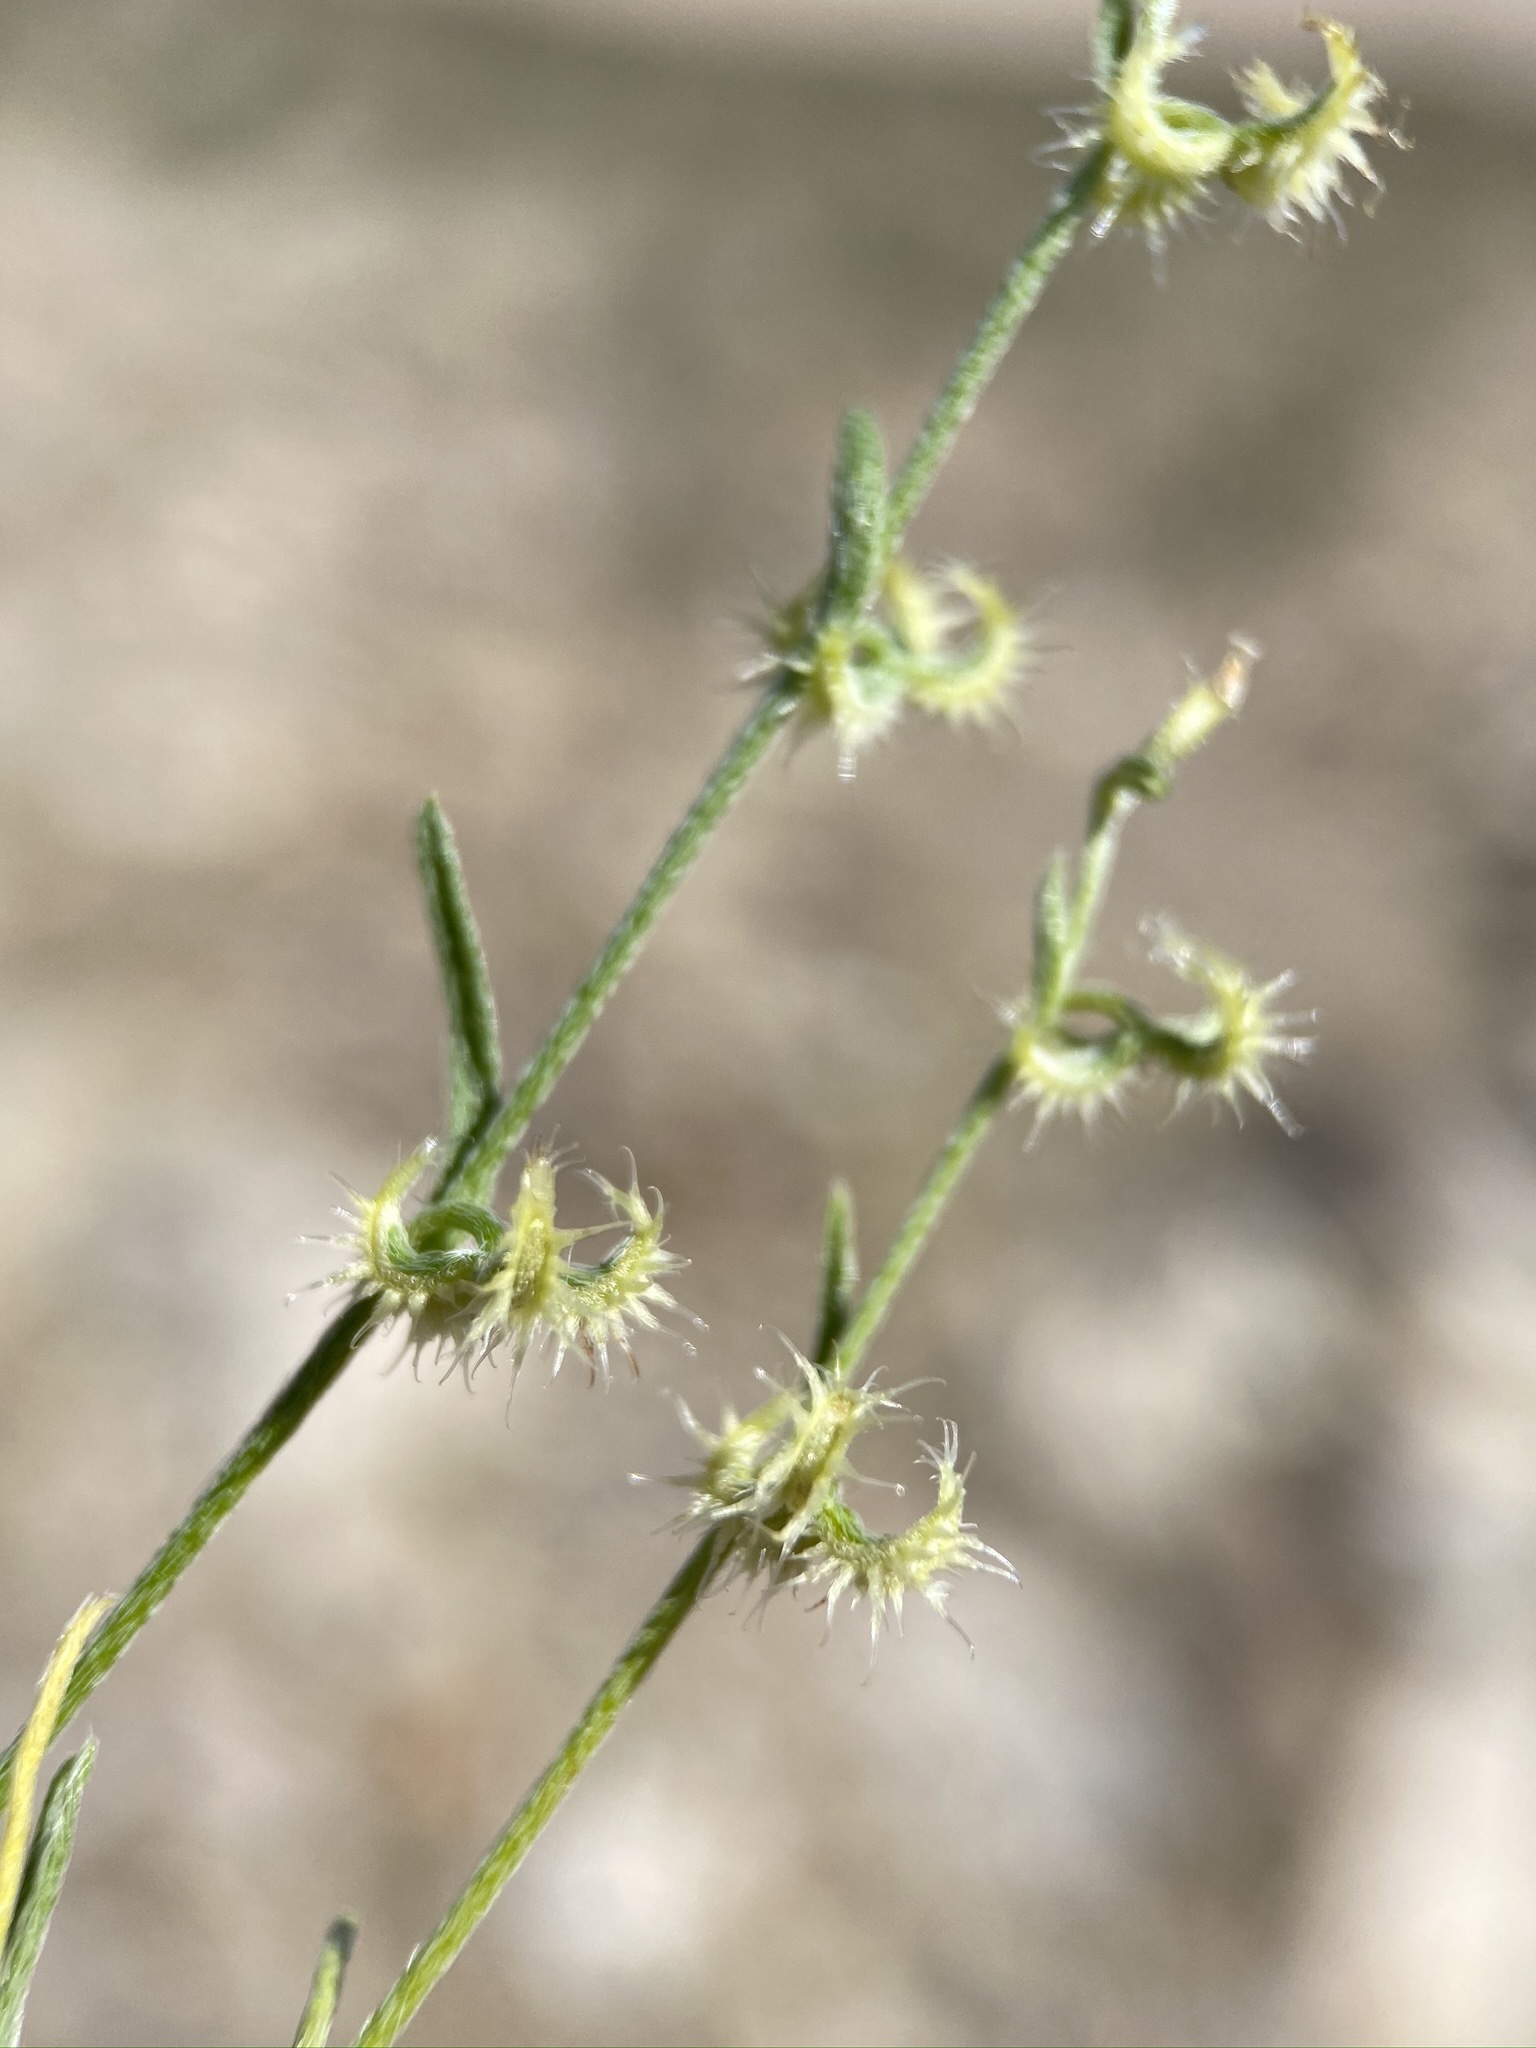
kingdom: Plantae
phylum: Tracheophyta
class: Magnoliopsida
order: Boraginales
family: Boraginaceae
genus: Pectocarya
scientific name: Pectocarya recurvata
